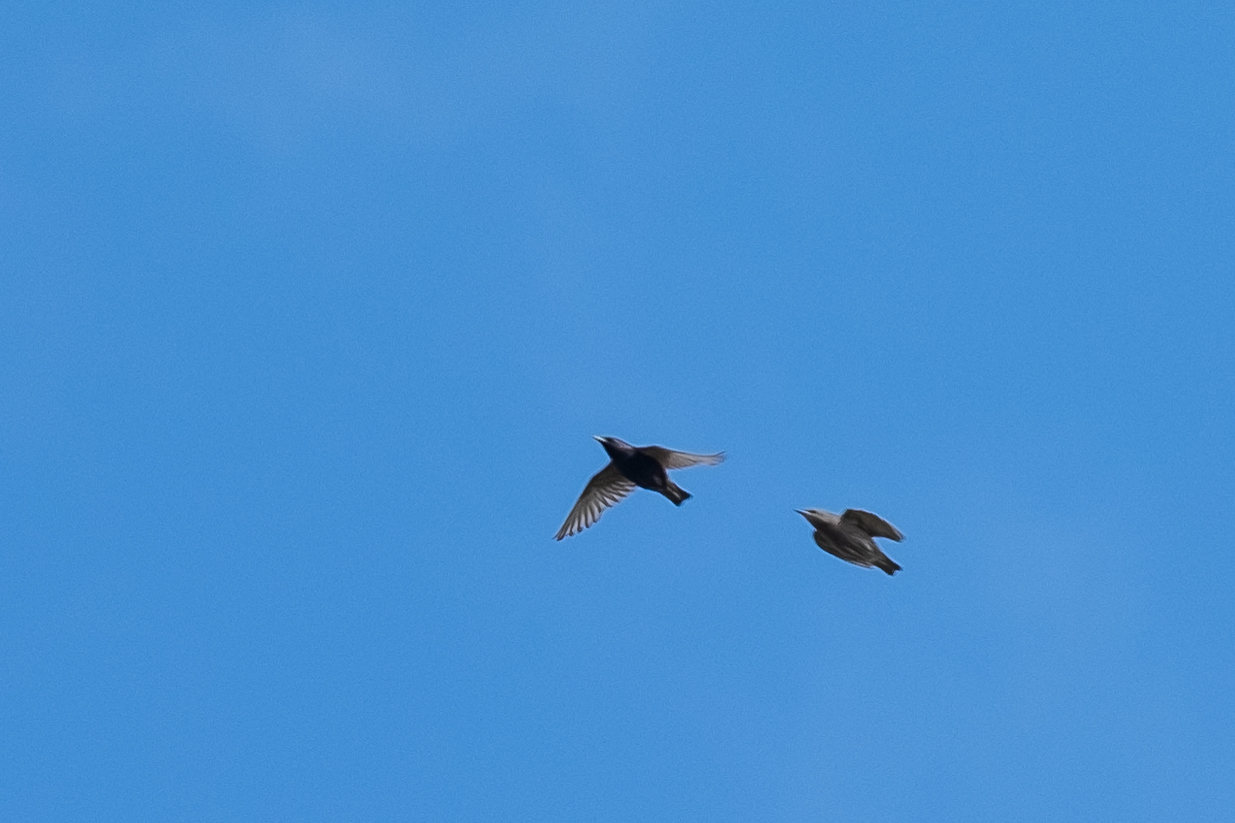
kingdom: Animalia
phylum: Chordata
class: Aves
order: Passeriformes
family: Sturnidae
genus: Sturnus
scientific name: Sturnus vulgaris
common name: Common starling
